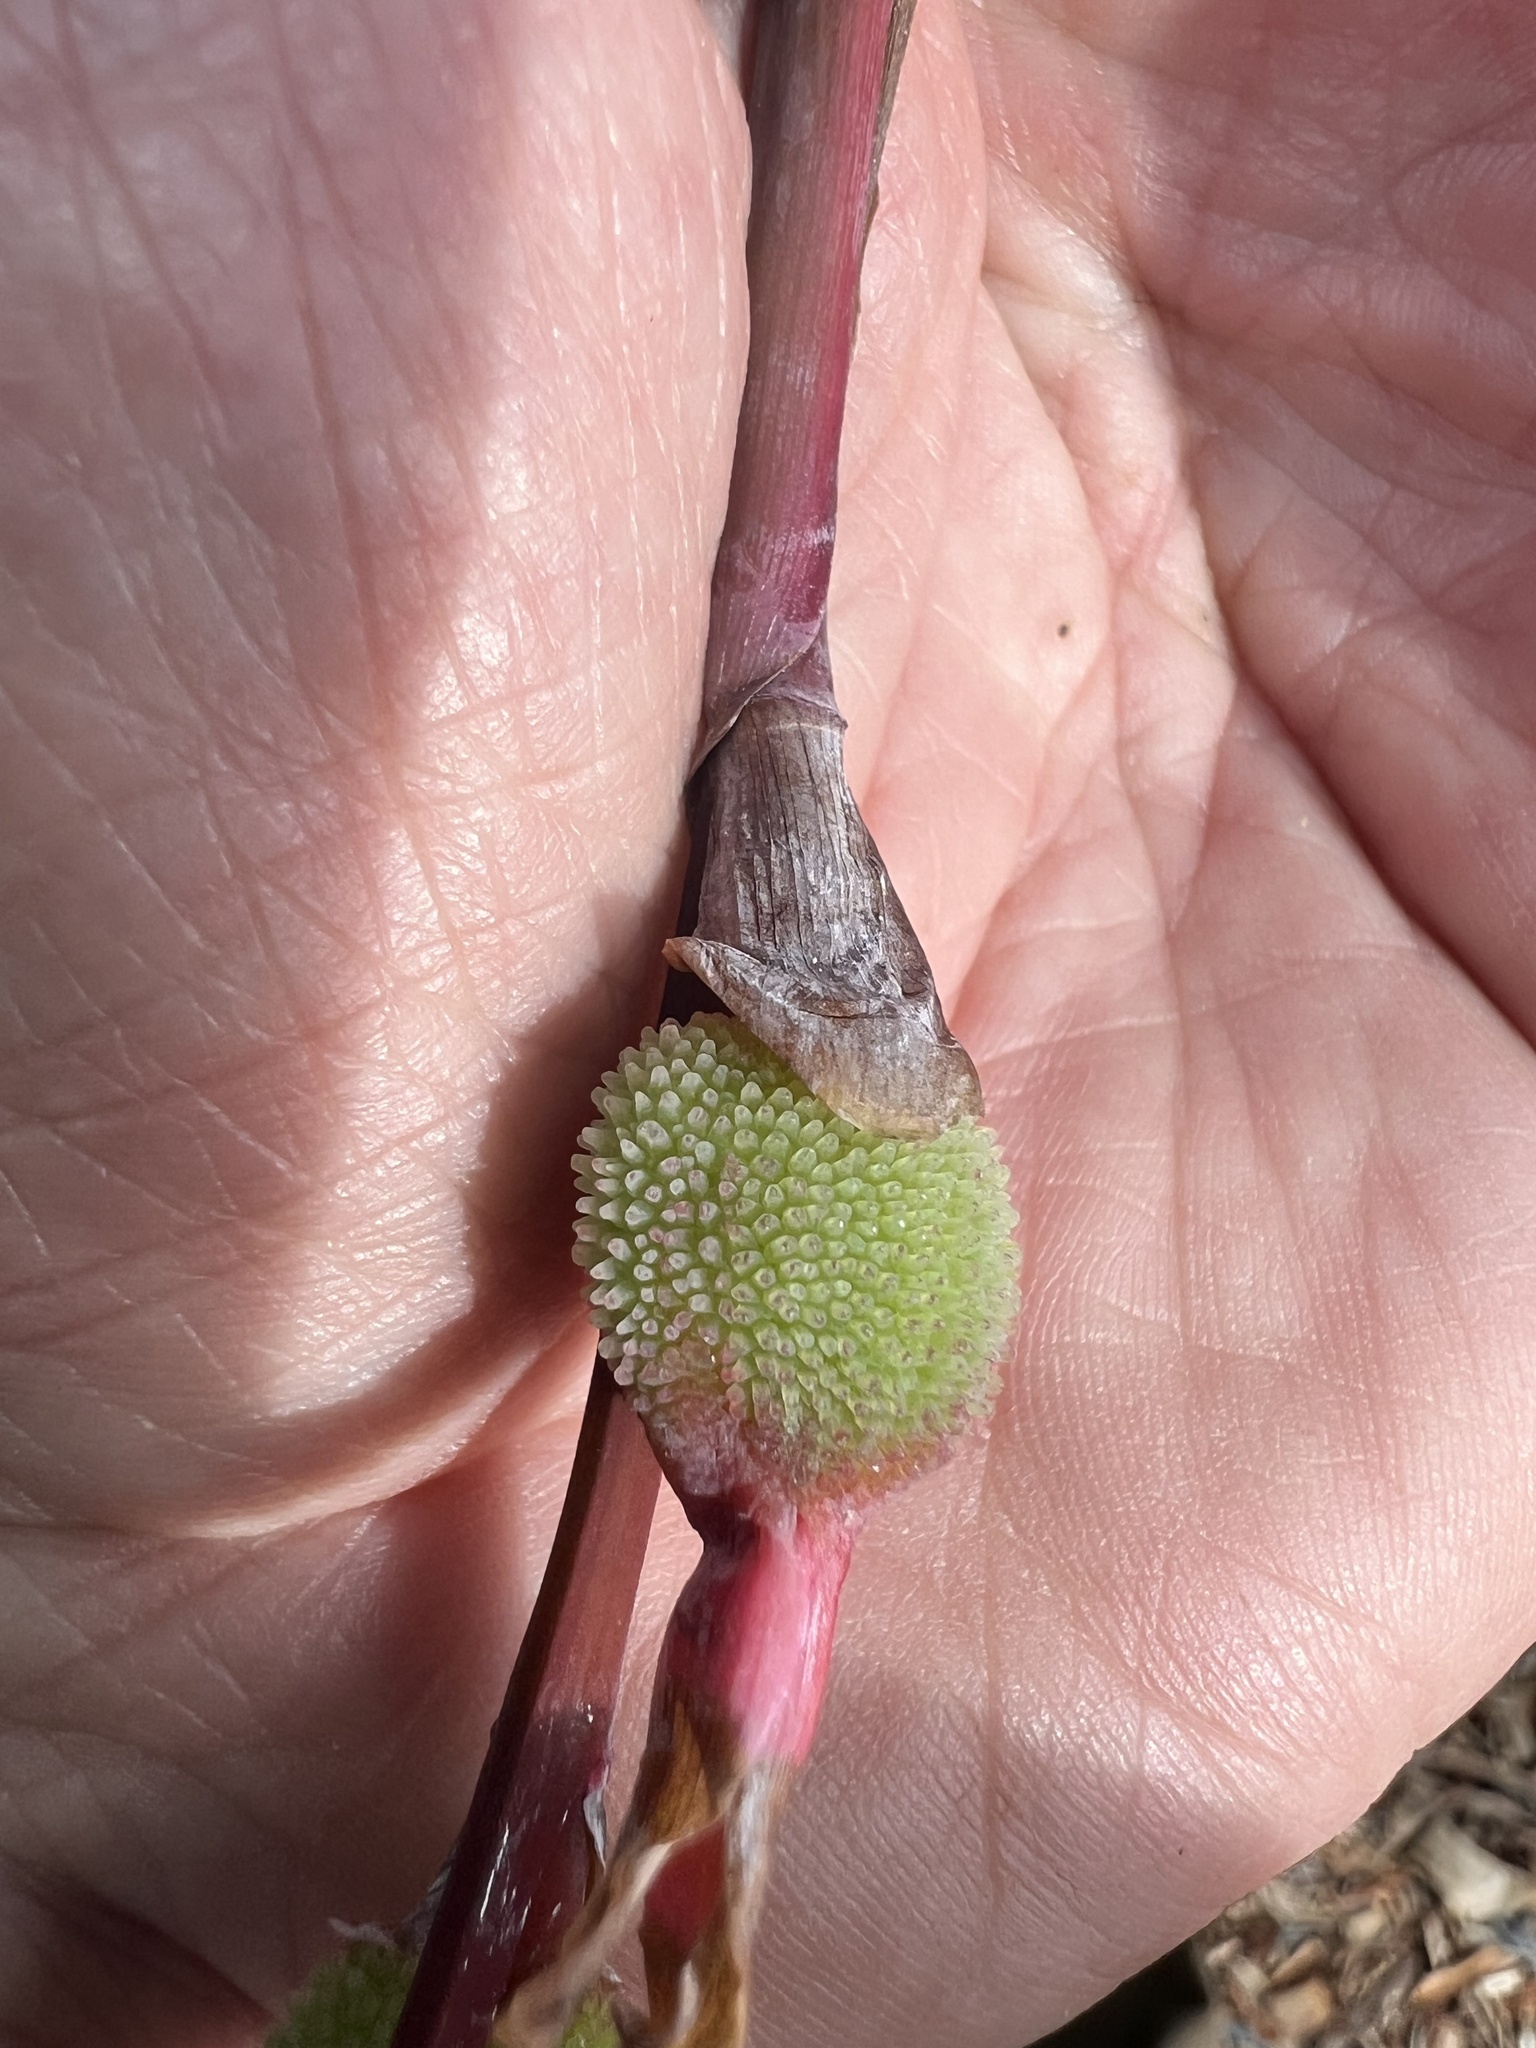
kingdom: Plantae
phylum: Tracheophyta
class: Liliopsida
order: Zingiberales
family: Cannaceae
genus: Canna
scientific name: Canna indica
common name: Indian shot
